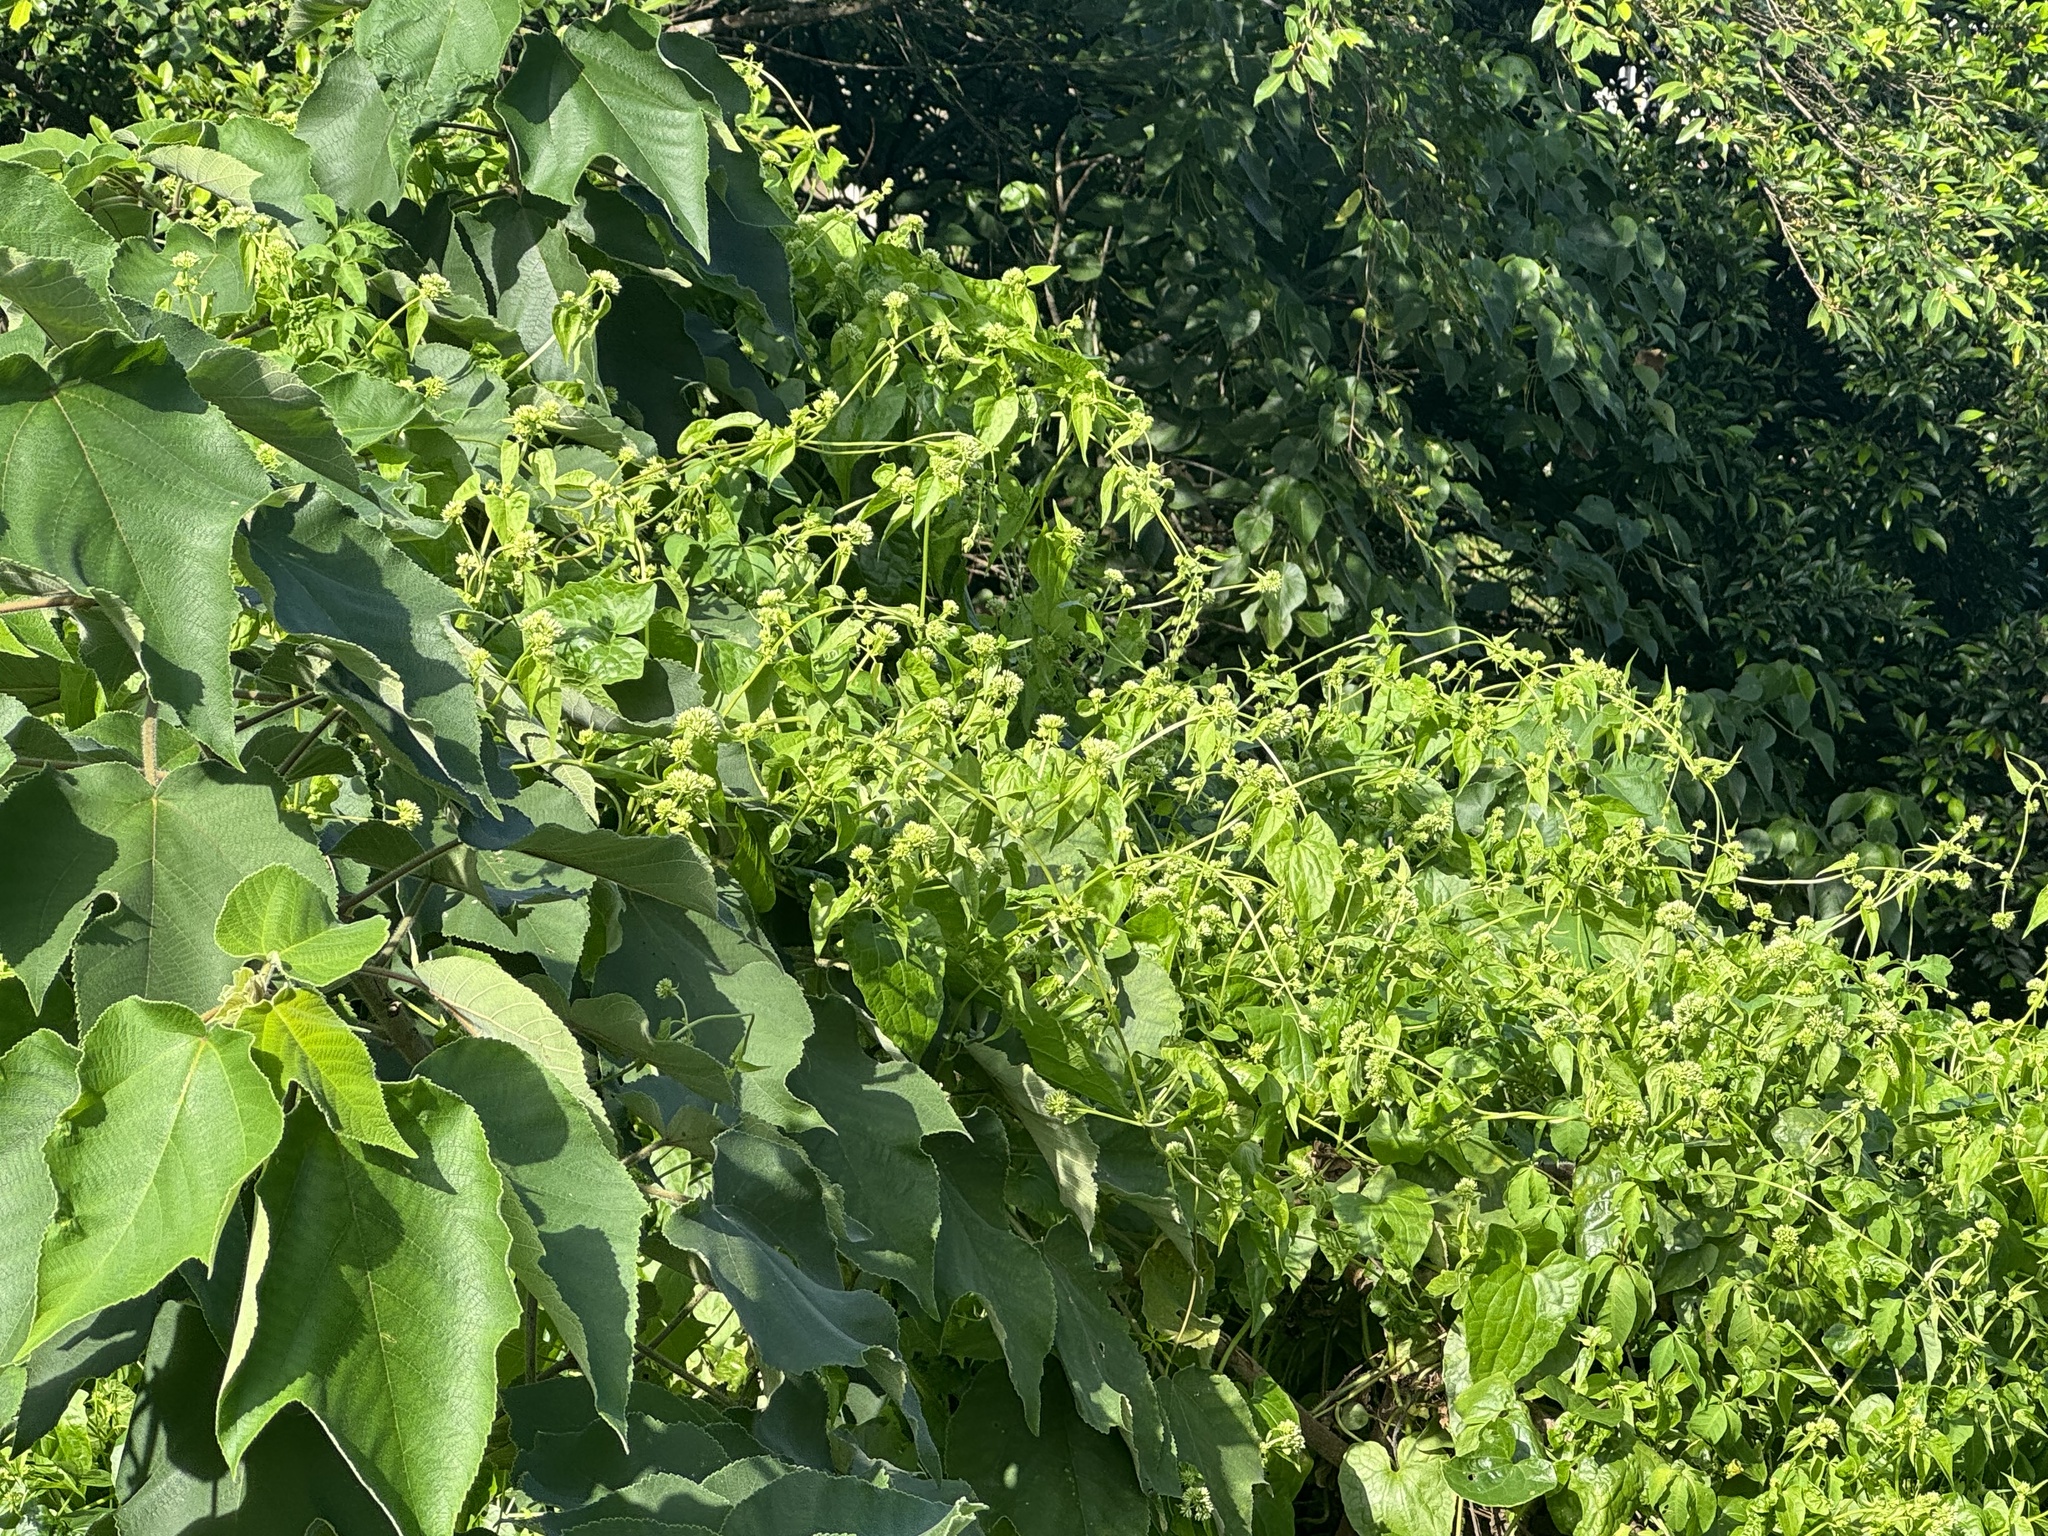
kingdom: Plantae
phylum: Tracheophyta
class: Magnoliopsida
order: Asterales
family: Asteraceae
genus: Mikania
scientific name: Mikania micrantha
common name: Mile-a-minute
